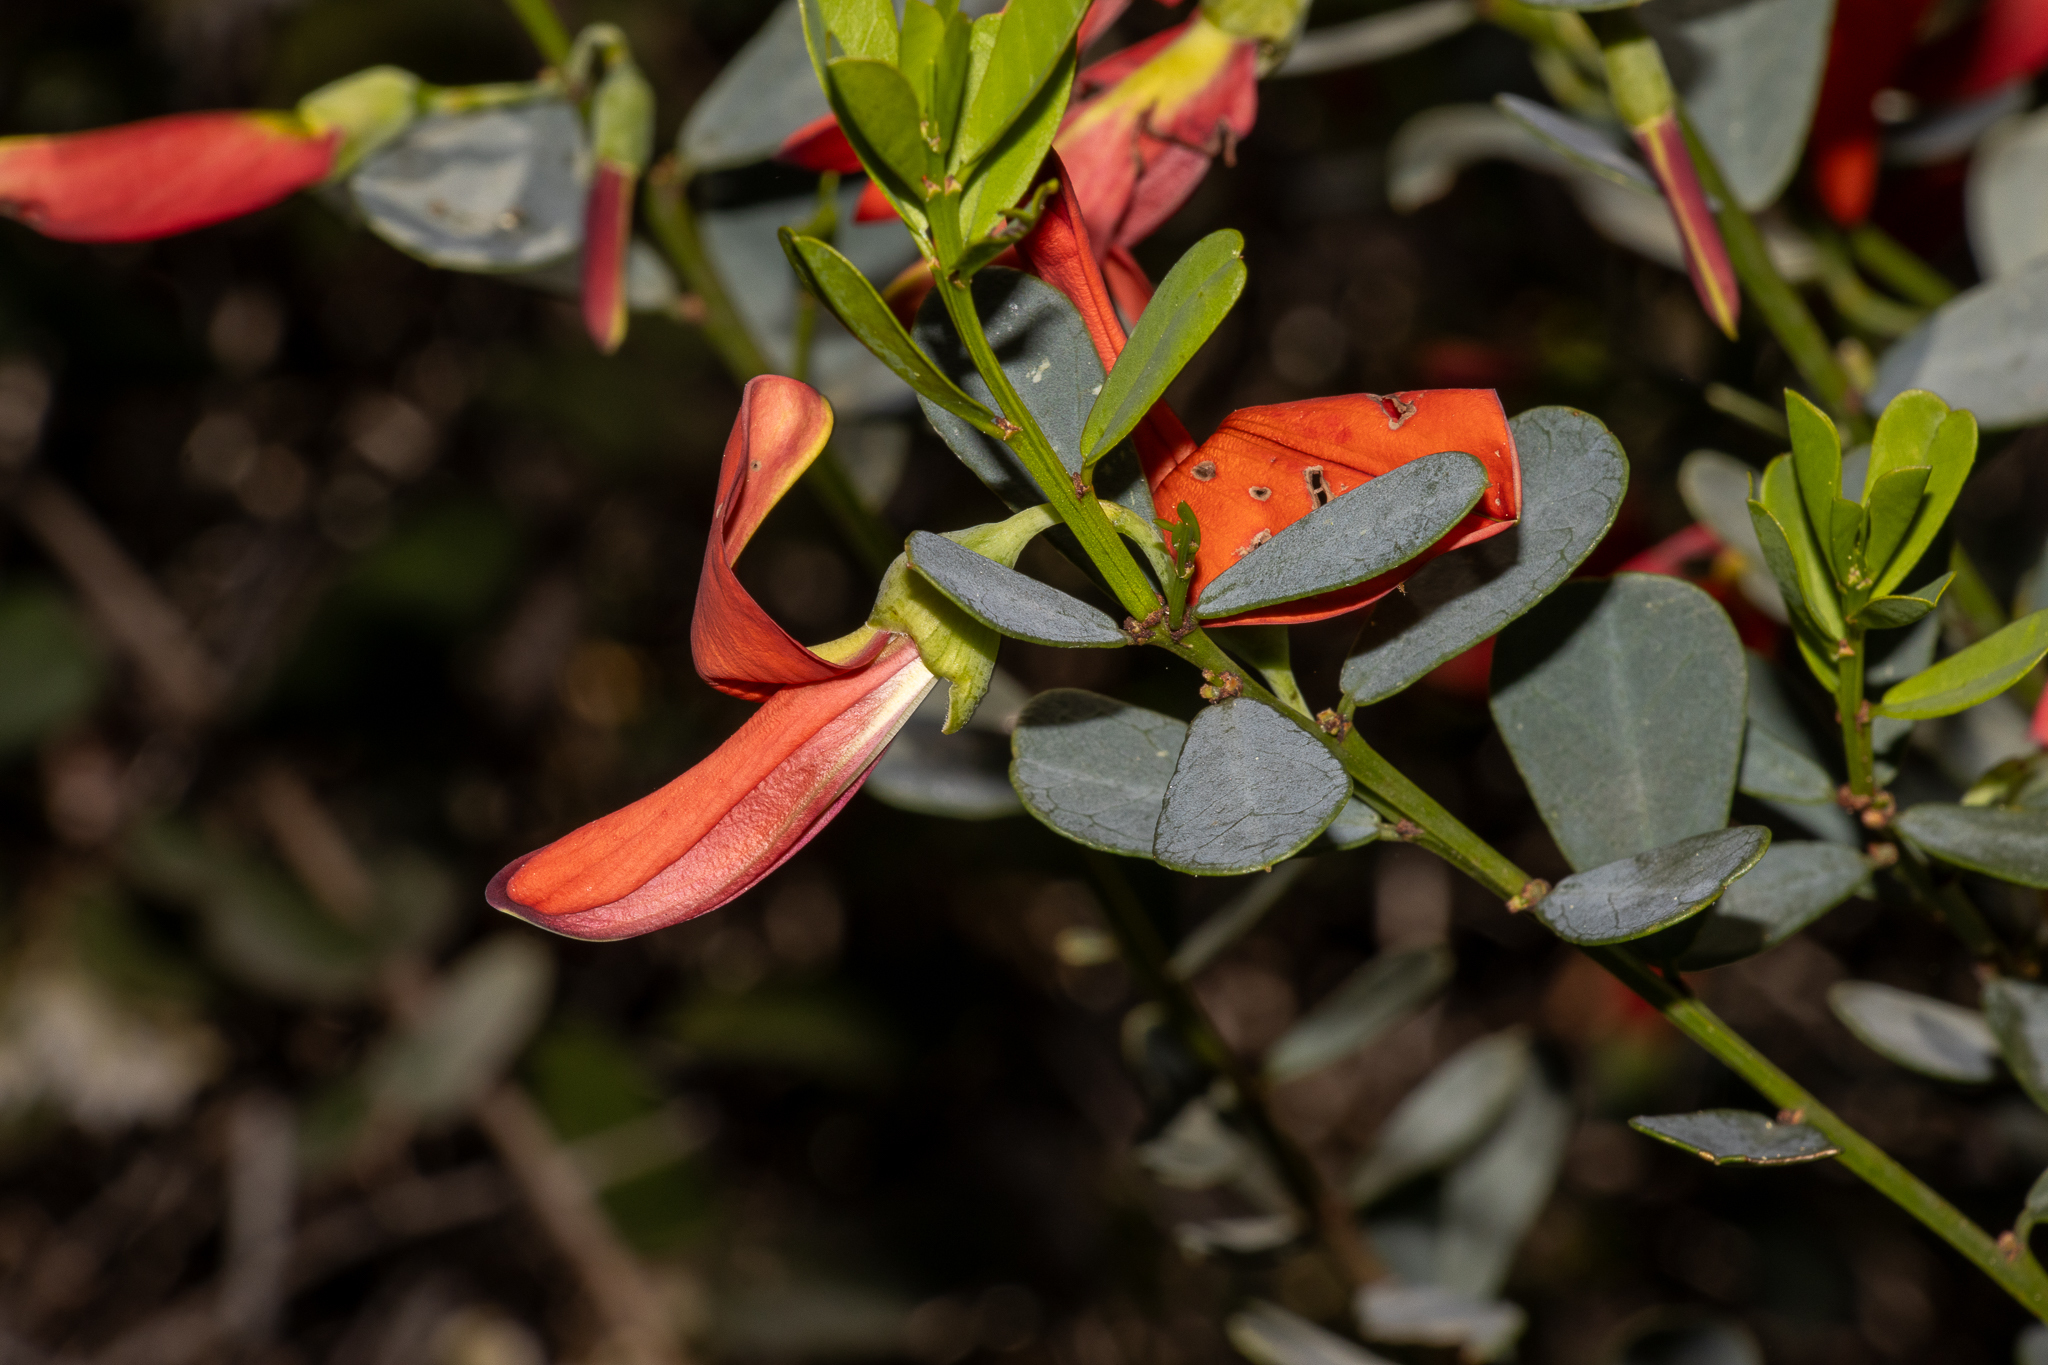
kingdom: Plantae
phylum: Tracheophyta
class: Magnoliopsida
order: Fabales
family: Fabaceae
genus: Templetonia
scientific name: Templetonia retusa
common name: Cockies'-tongue
